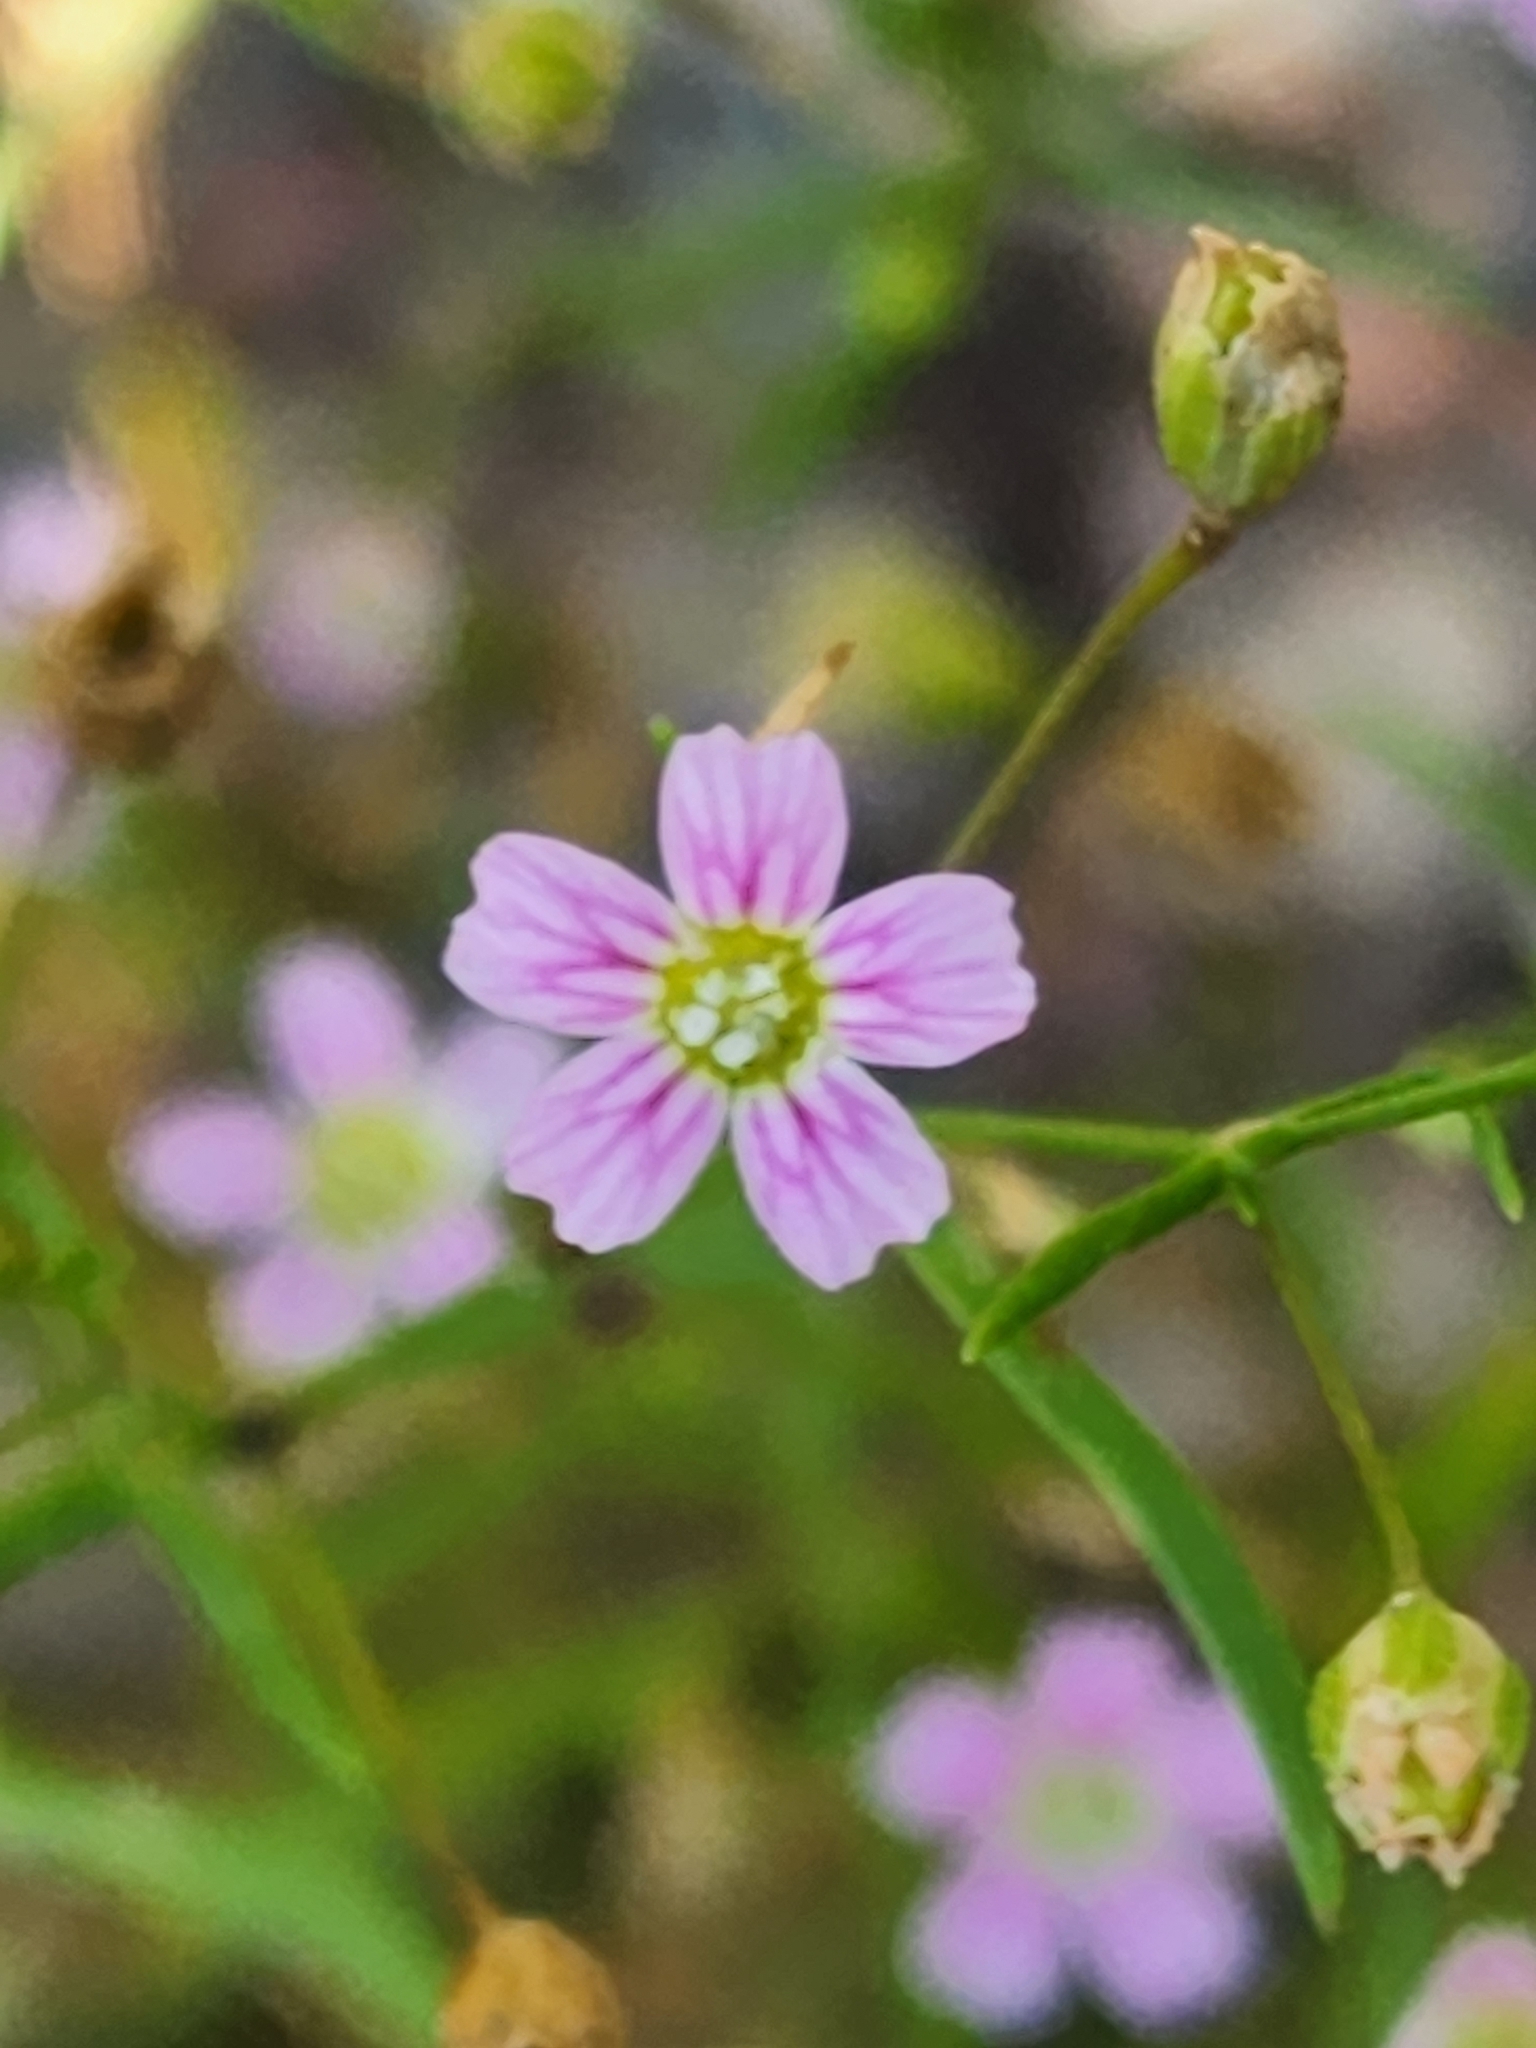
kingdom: Plantae
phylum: Tracheophyta
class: Magnoliopsida
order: Caryophyllales
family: Caryophyllaceae
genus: Psammophiliella
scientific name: Psammophiliella muralis
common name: Cushion baby's-breath
